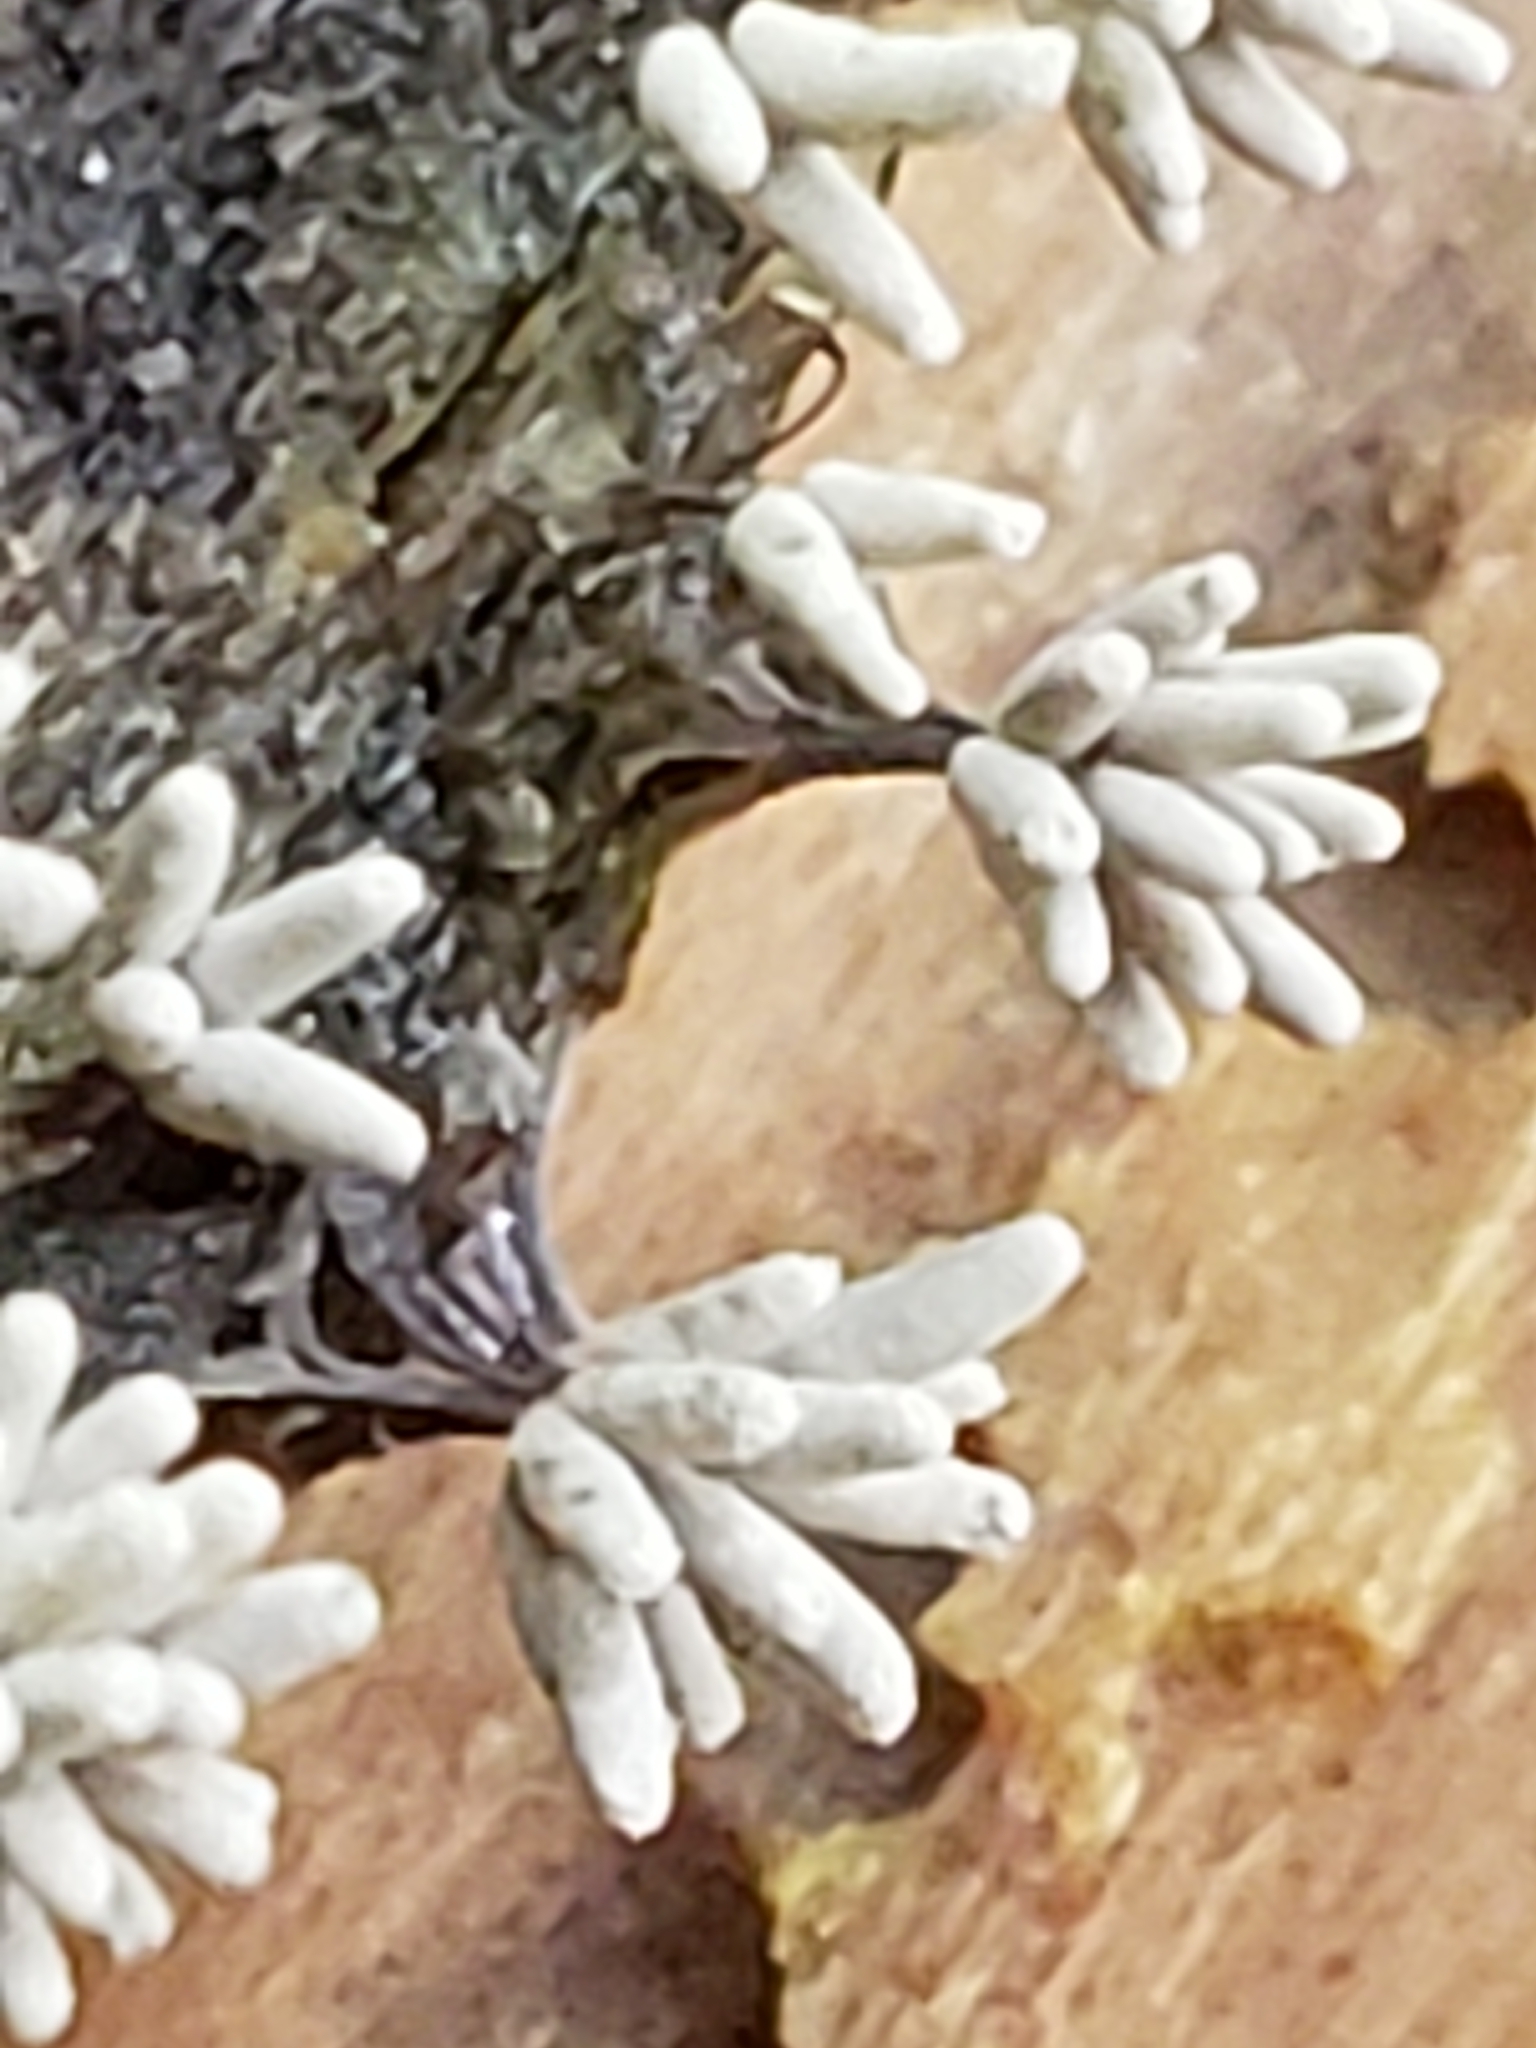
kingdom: Protozoa
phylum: Mycetozoa
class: Myxomycetes
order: Trichiales
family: Arcyriaceae
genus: Arcyria
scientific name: Arcyria cinerea
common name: White carnival candy slime mold
